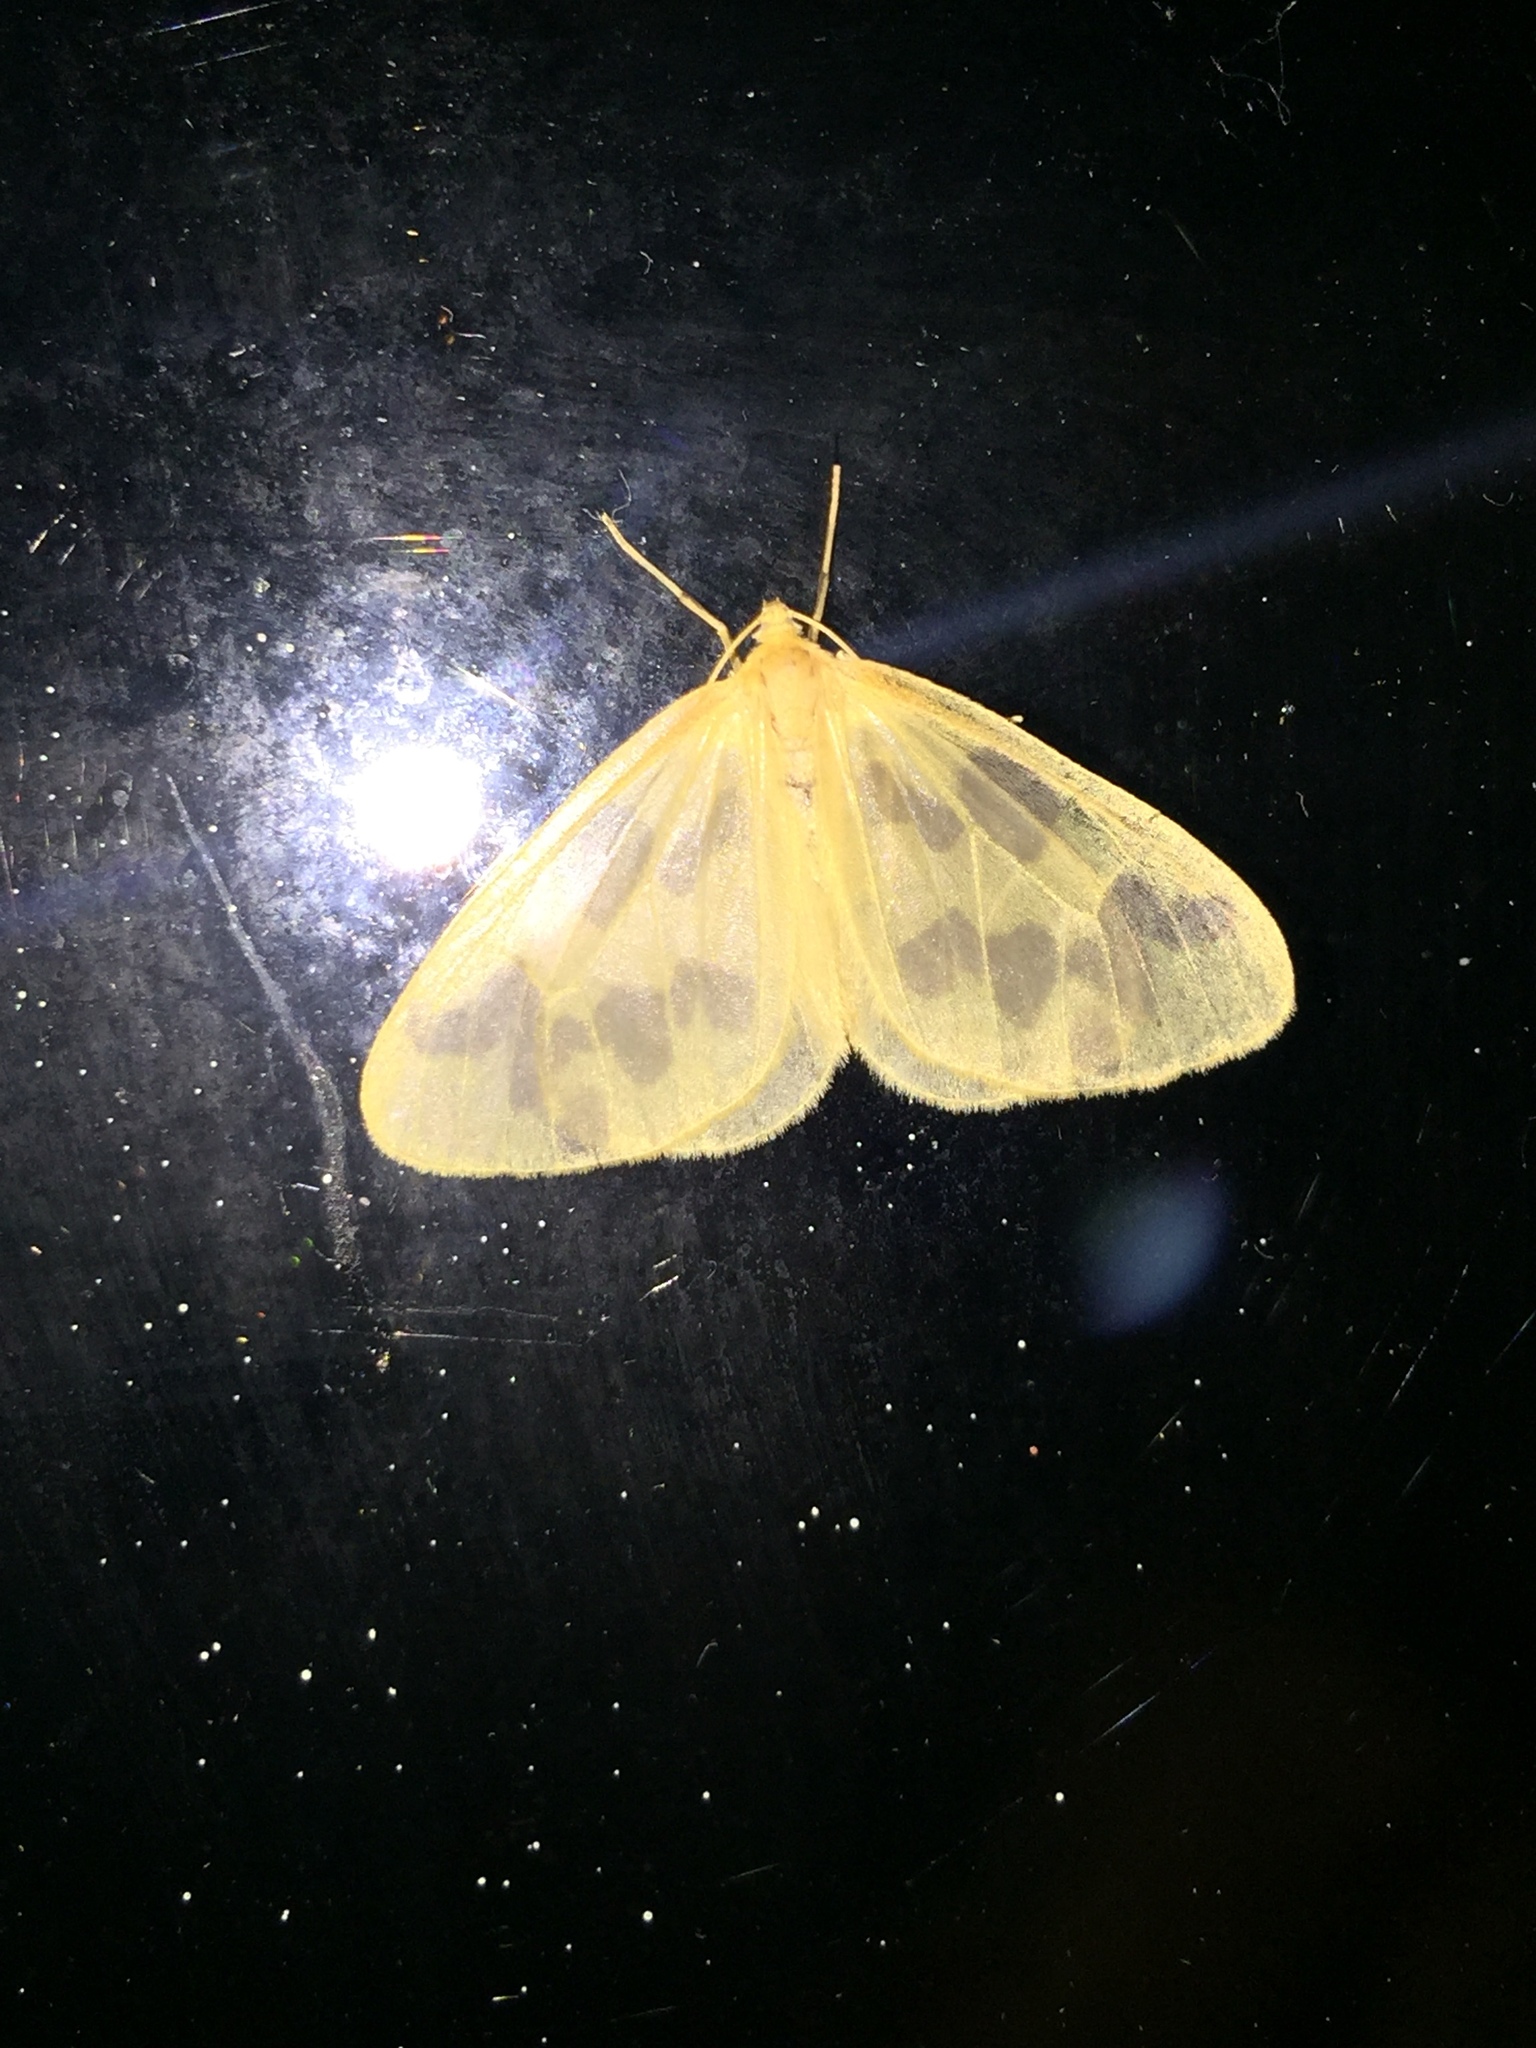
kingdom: Animalia
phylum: Arthropoda
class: Insecta
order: Lepidoptera
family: Geometridae
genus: Eubaphe
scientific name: Eubaphe mendica
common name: Beggar
